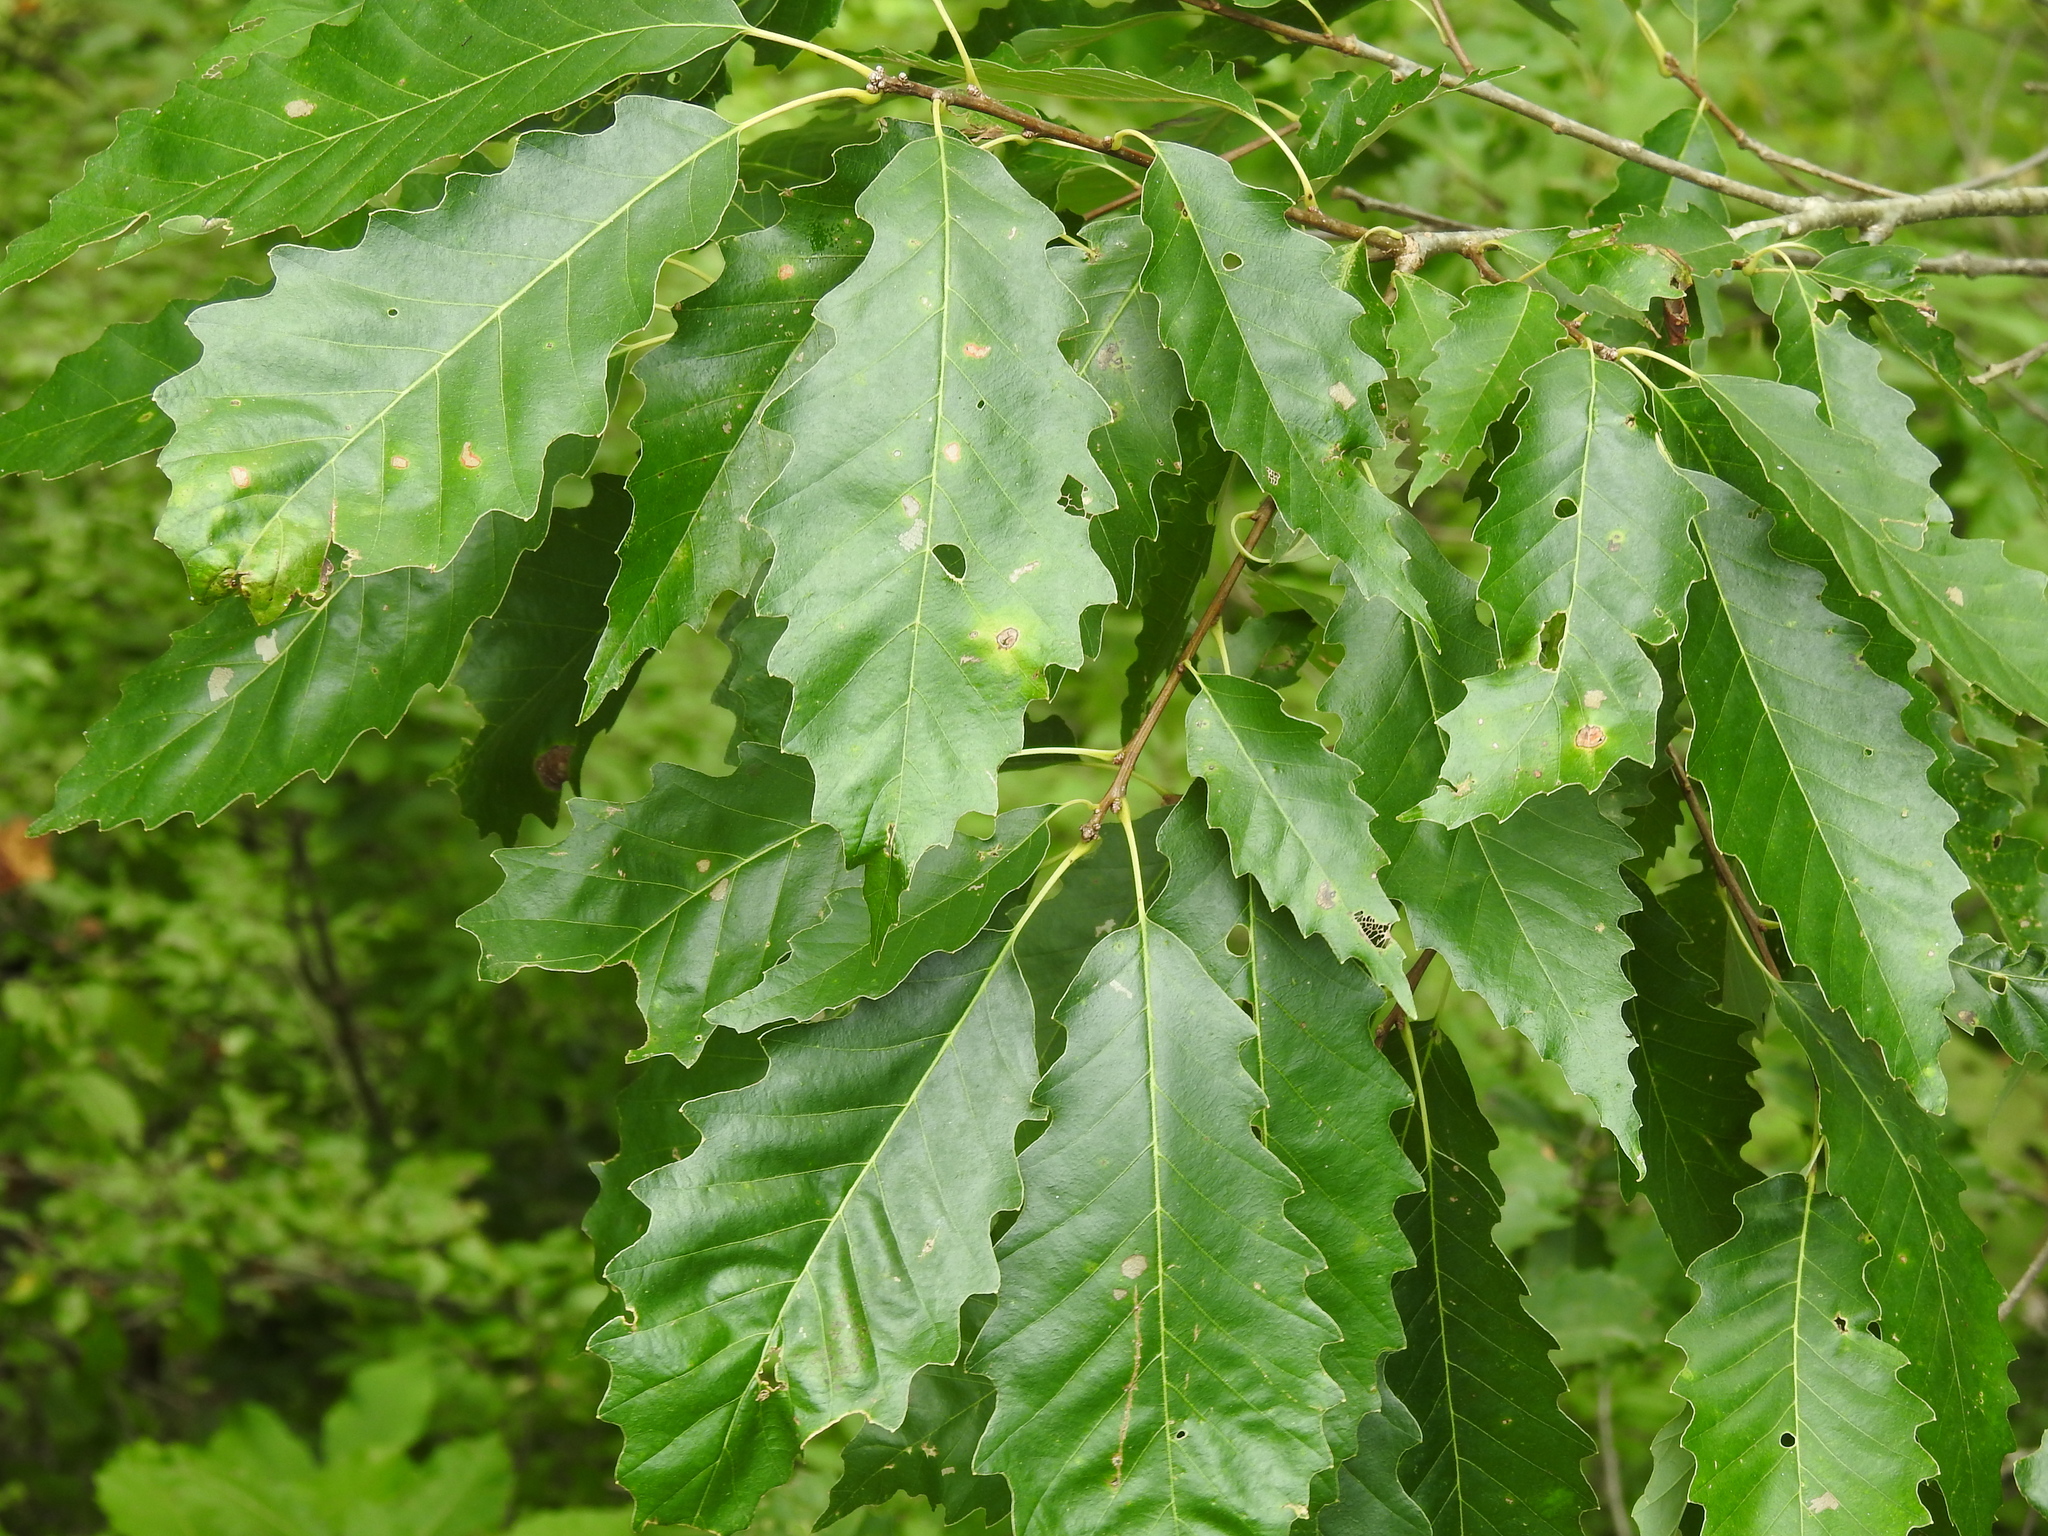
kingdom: Plantae
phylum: Tracheophyta
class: Magnoliopsida
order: Fagales
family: Fagaceae
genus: Quercus
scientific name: Quercus muehlenbergii
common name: Chinkapin oak
